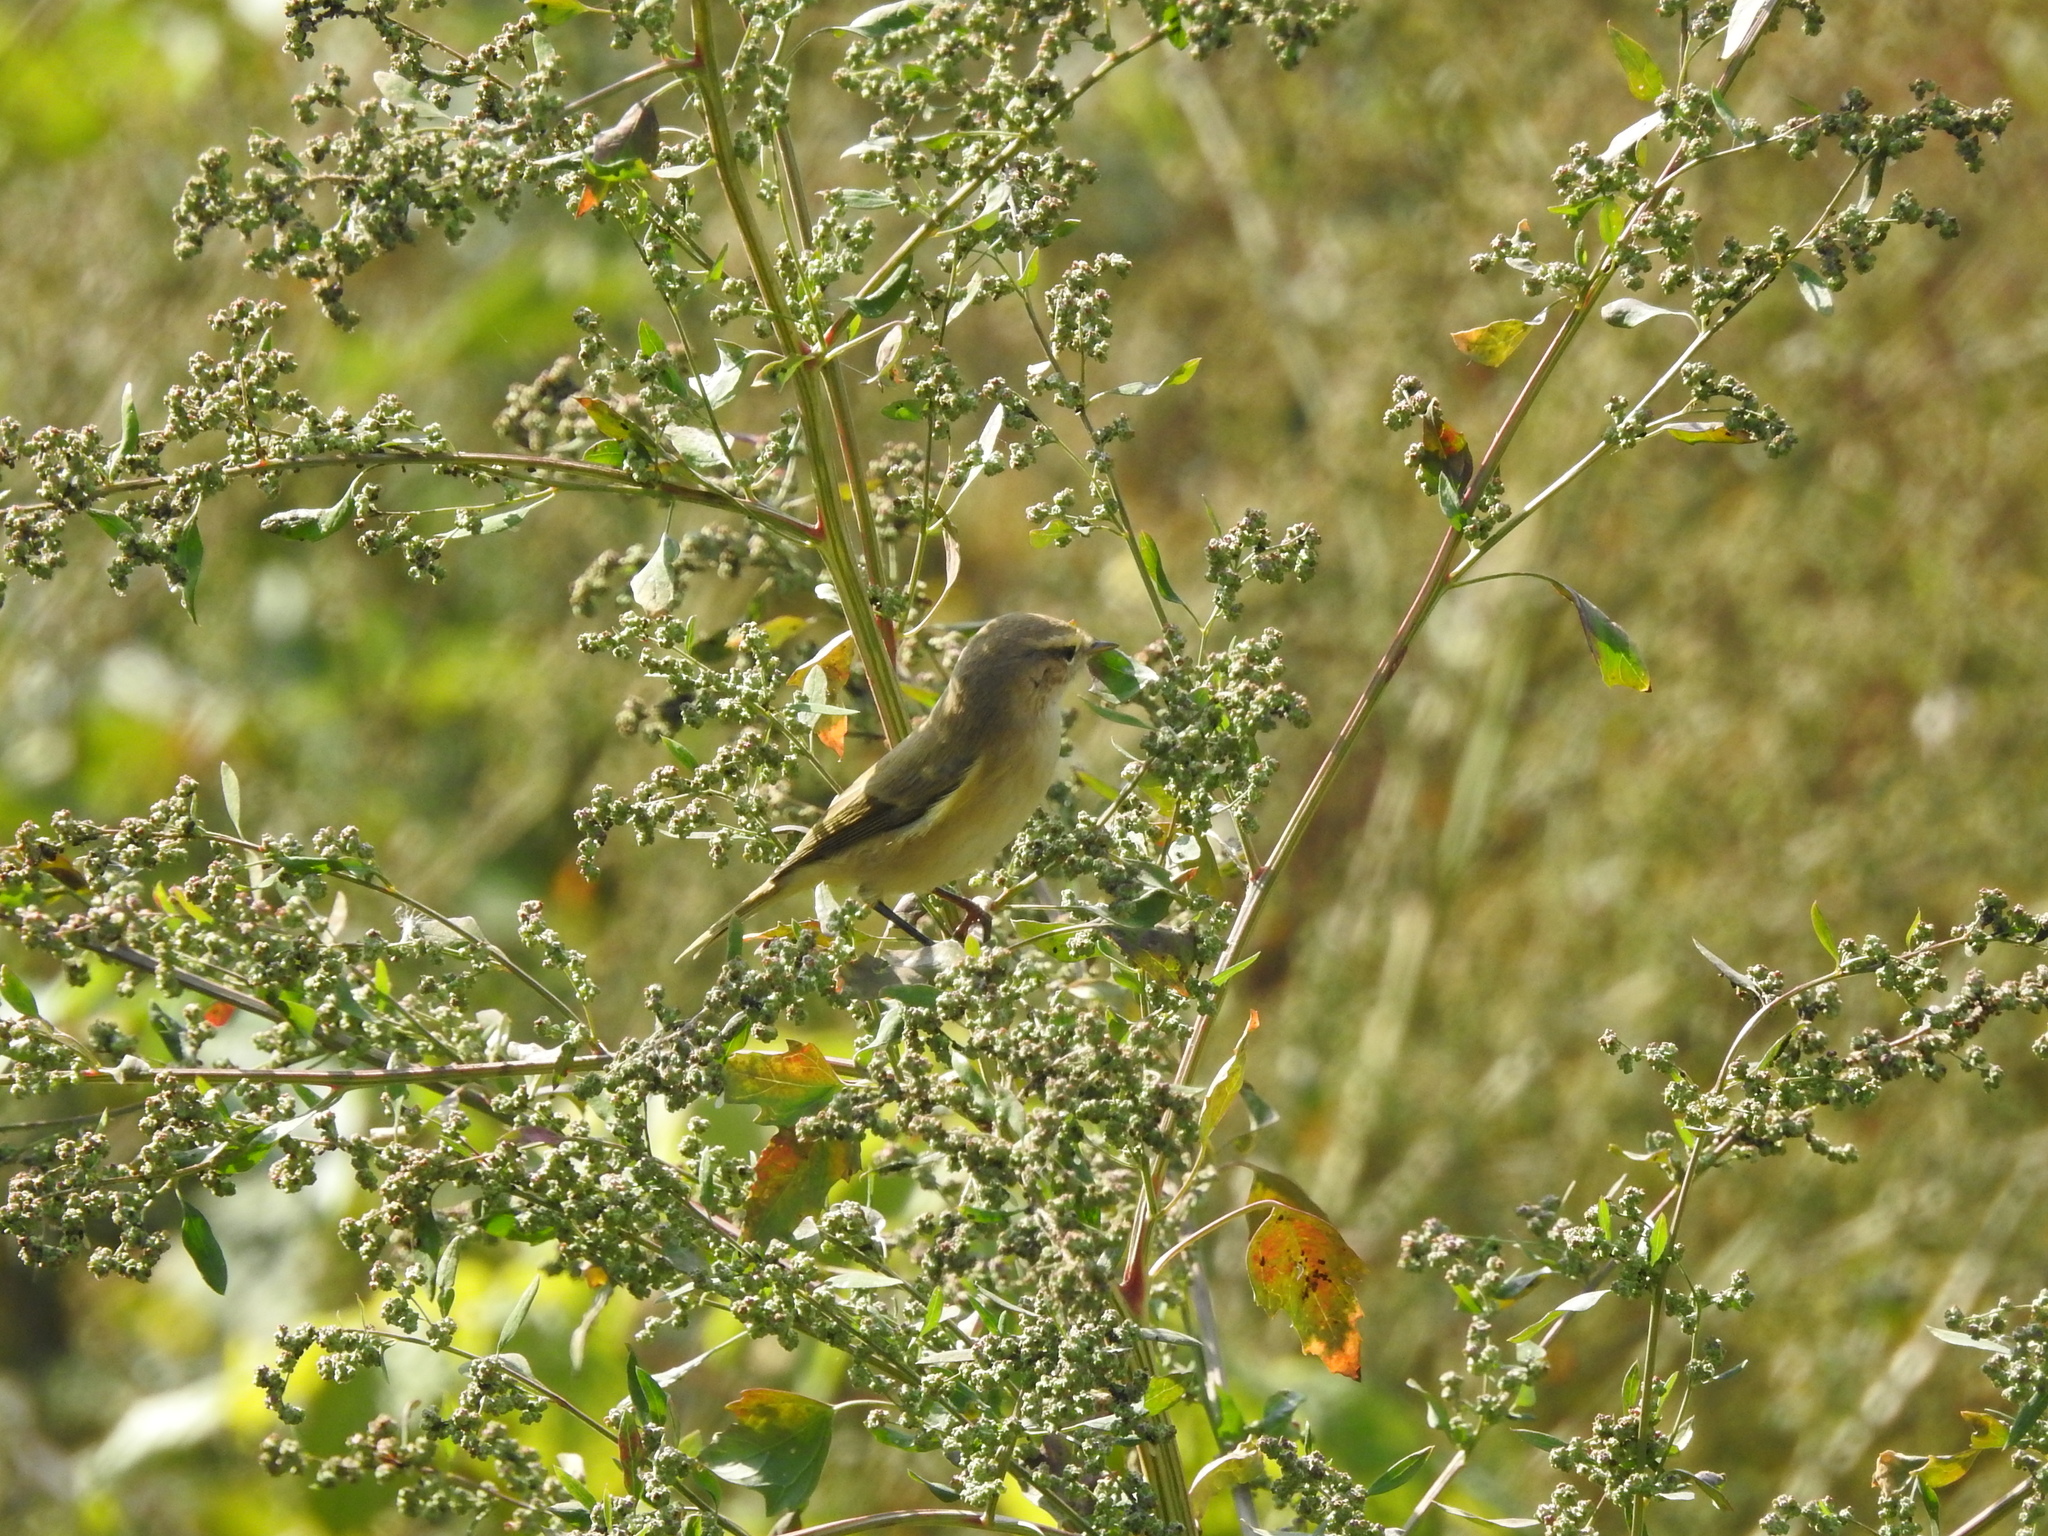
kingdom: Animalia
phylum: Chordata
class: Aves
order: Passeriformes
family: Phylloscopidae
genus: Phylloscopus
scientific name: Phylloscopus collybita
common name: Common chiffchaff
